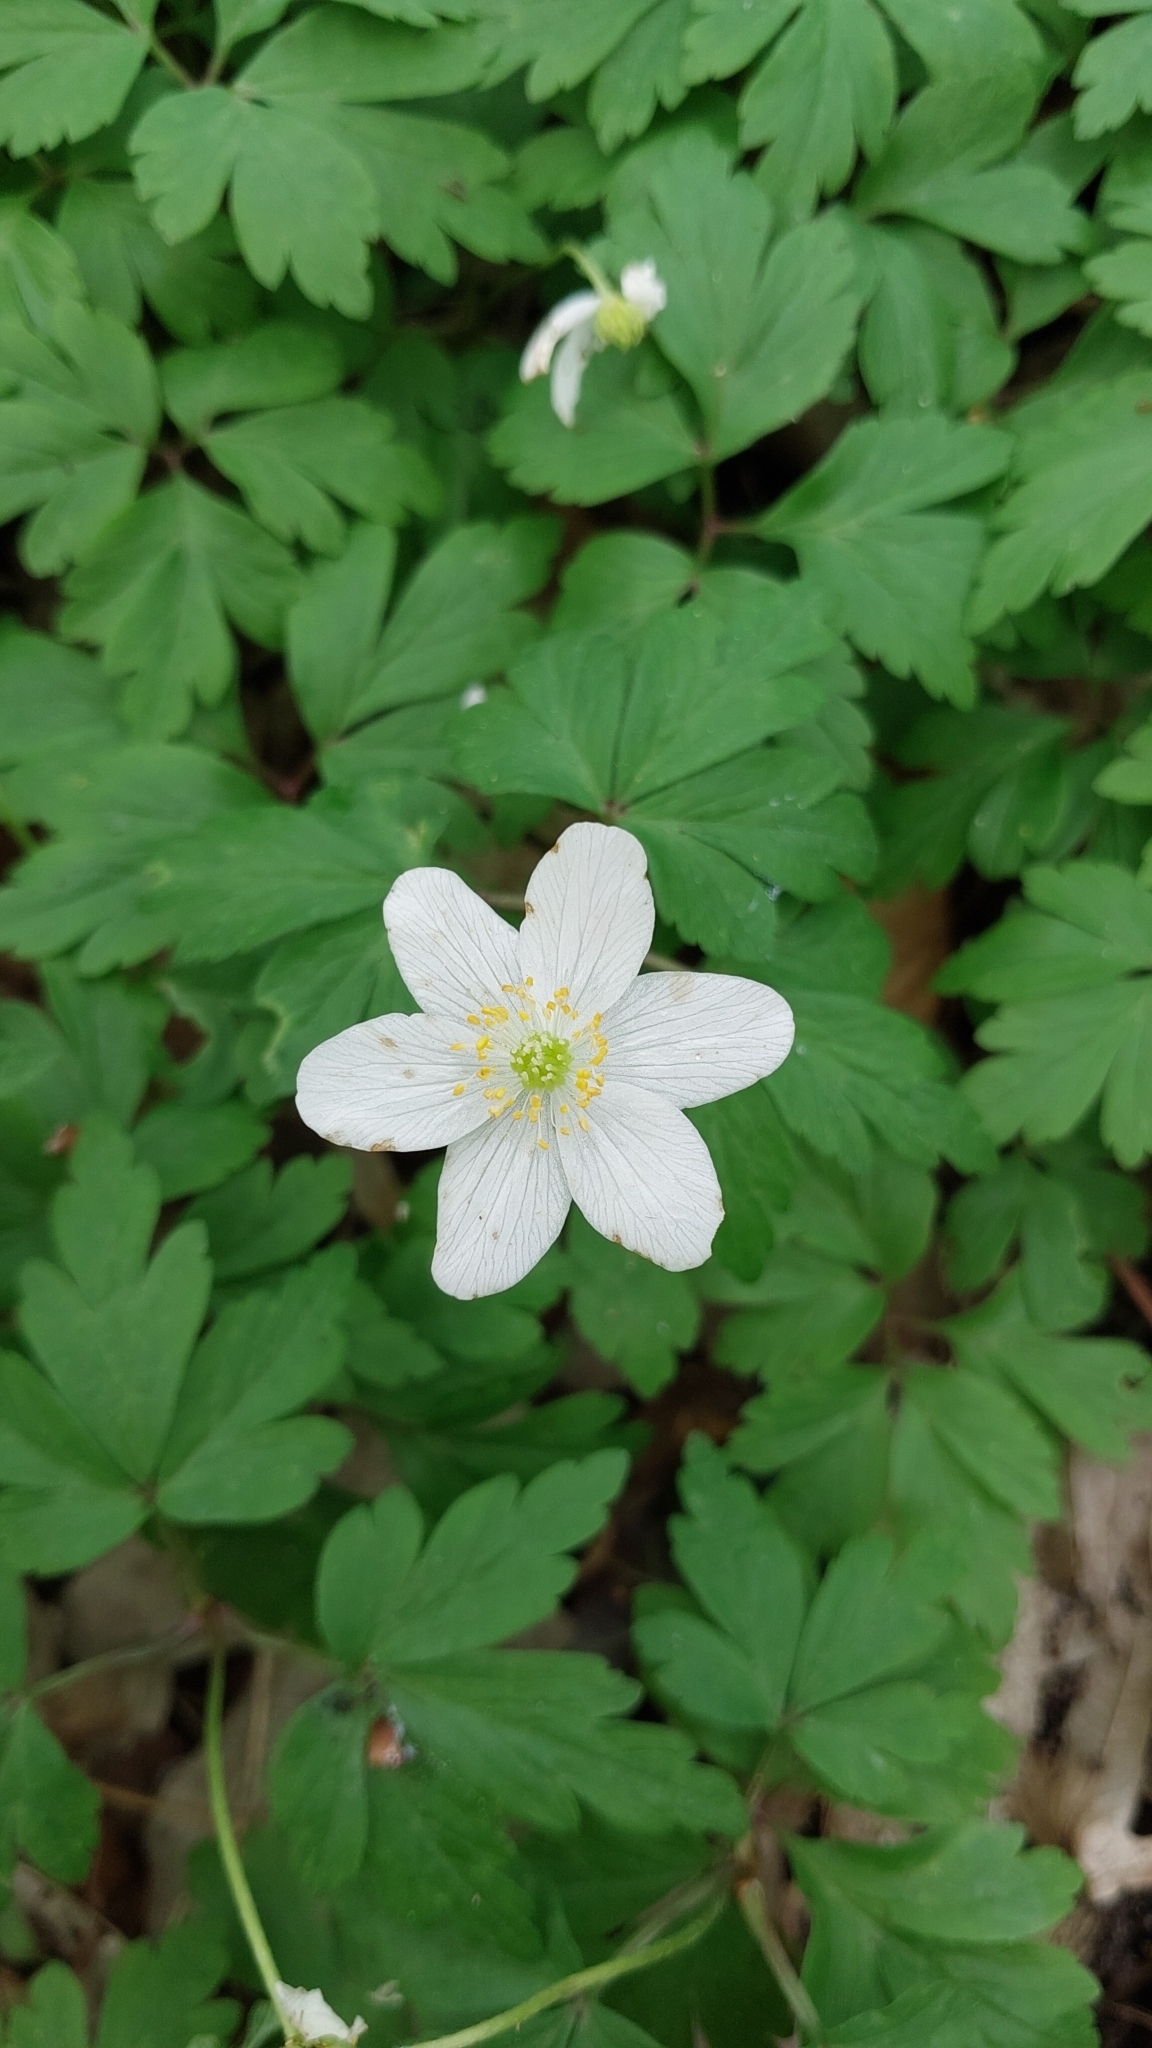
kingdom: Plantae
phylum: Tracheophyta
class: Magnoliopsida
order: Ranunculales
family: Ranunculaceae
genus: Anemone
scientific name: Anemone nemorosa
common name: Wood anemone
